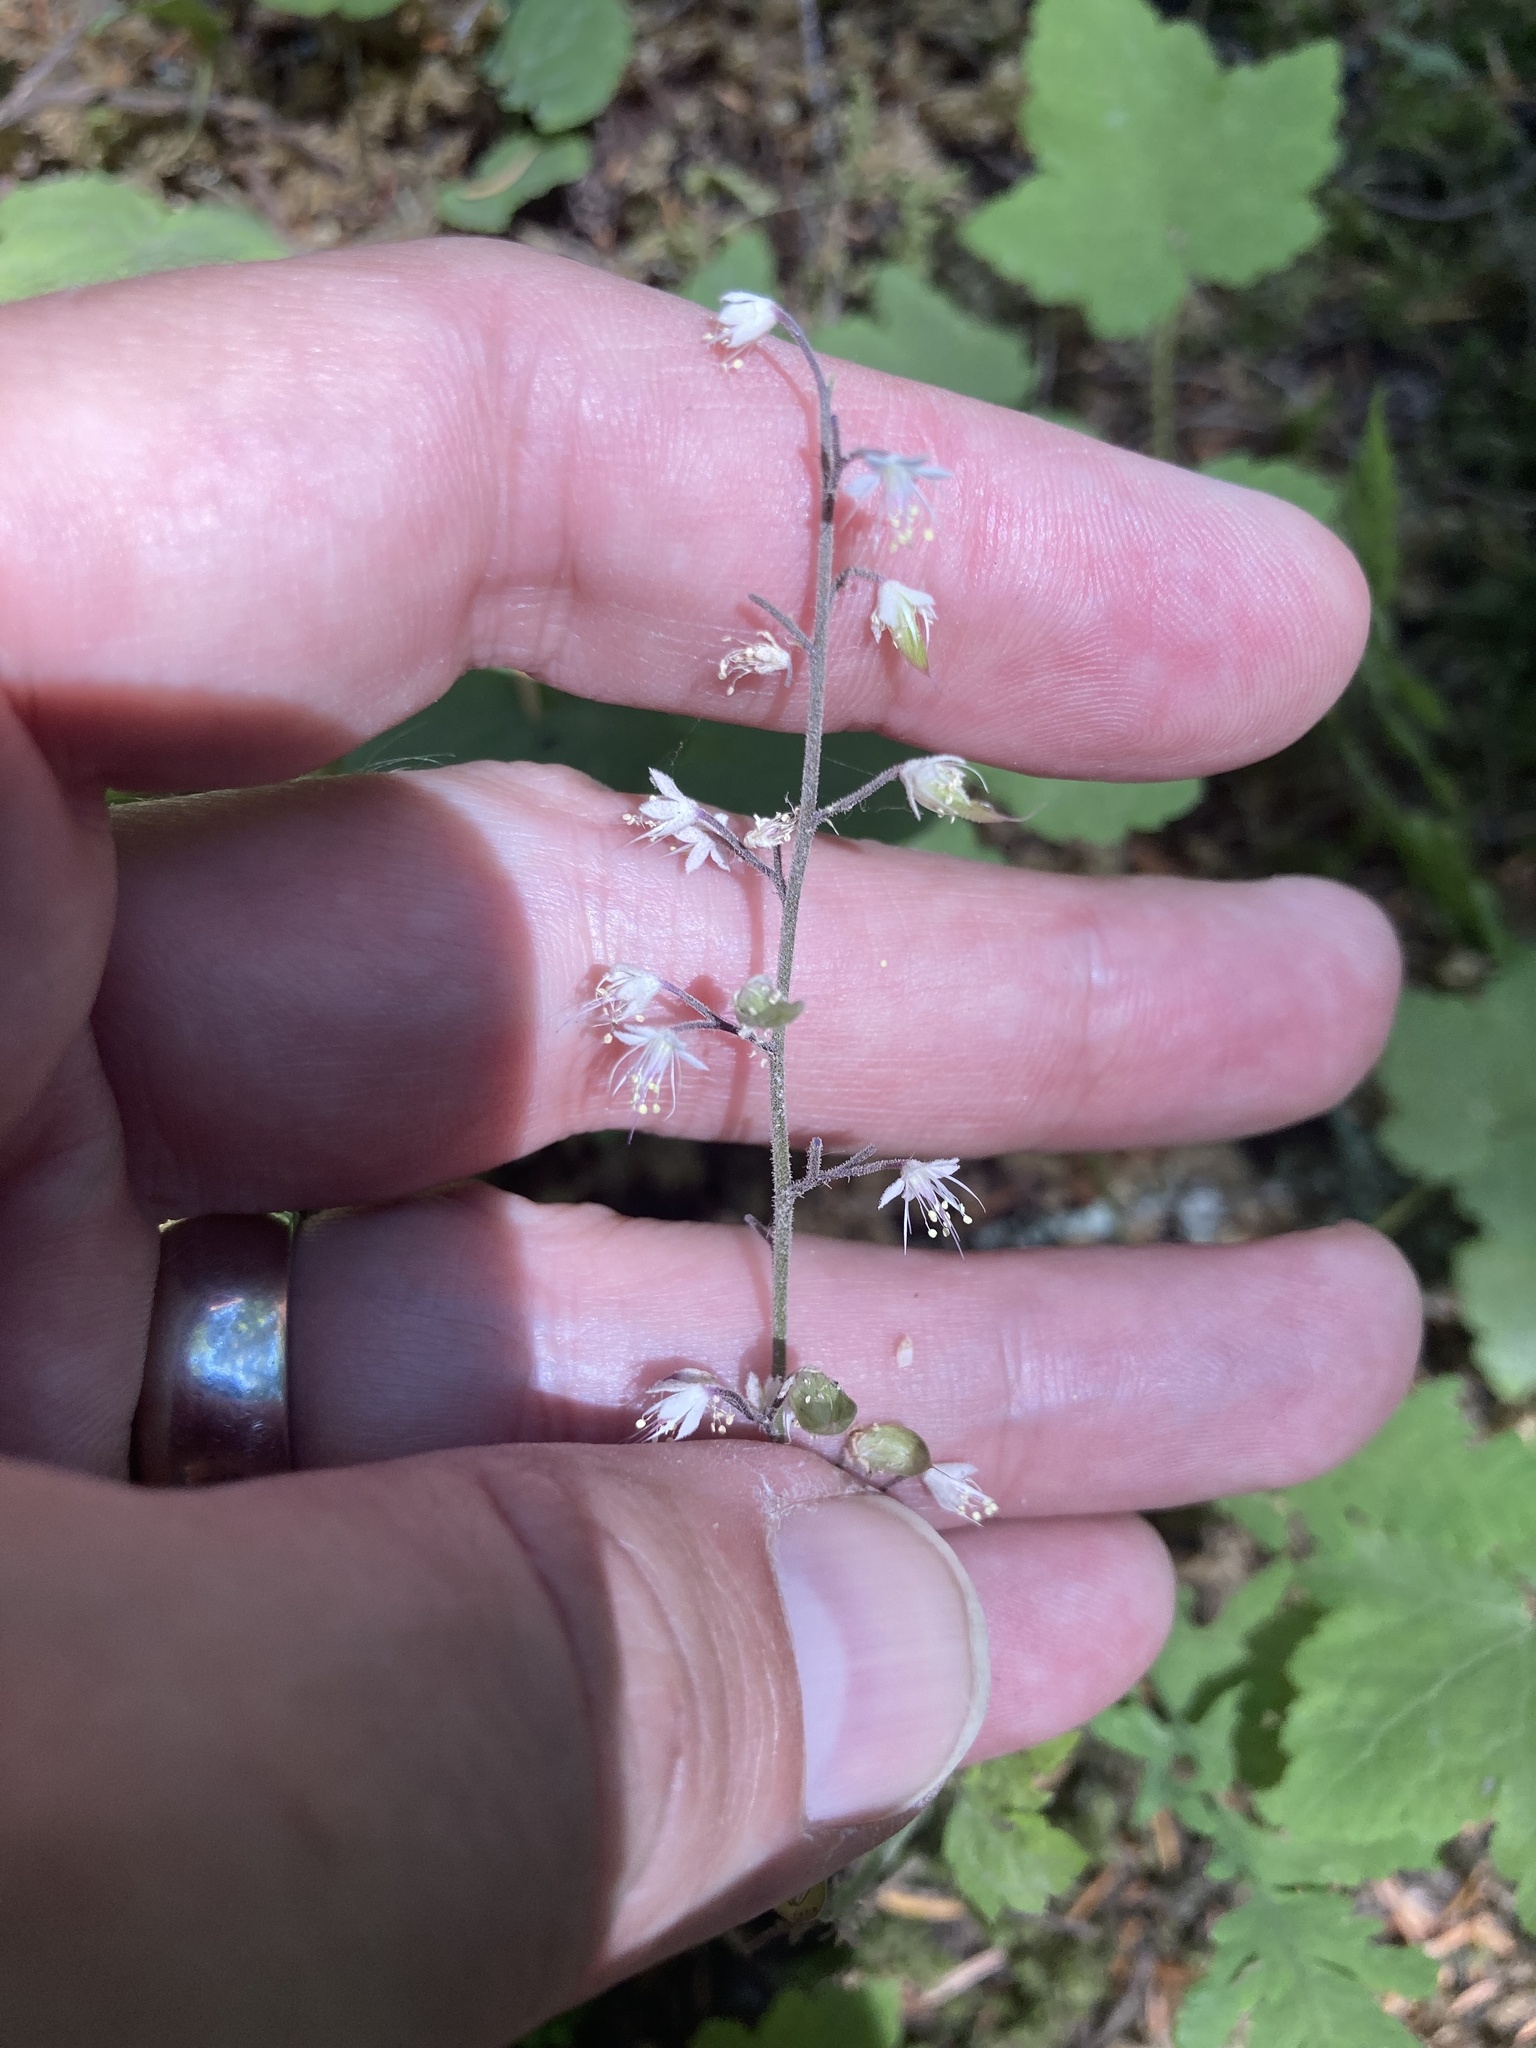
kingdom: Plantae
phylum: Tracheophyta
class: Magnoliopsida
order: Saxifragales
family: Saxifragaceae
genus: Tiarella
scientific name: Tiarella trifoliata
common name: Sugar-scoop
